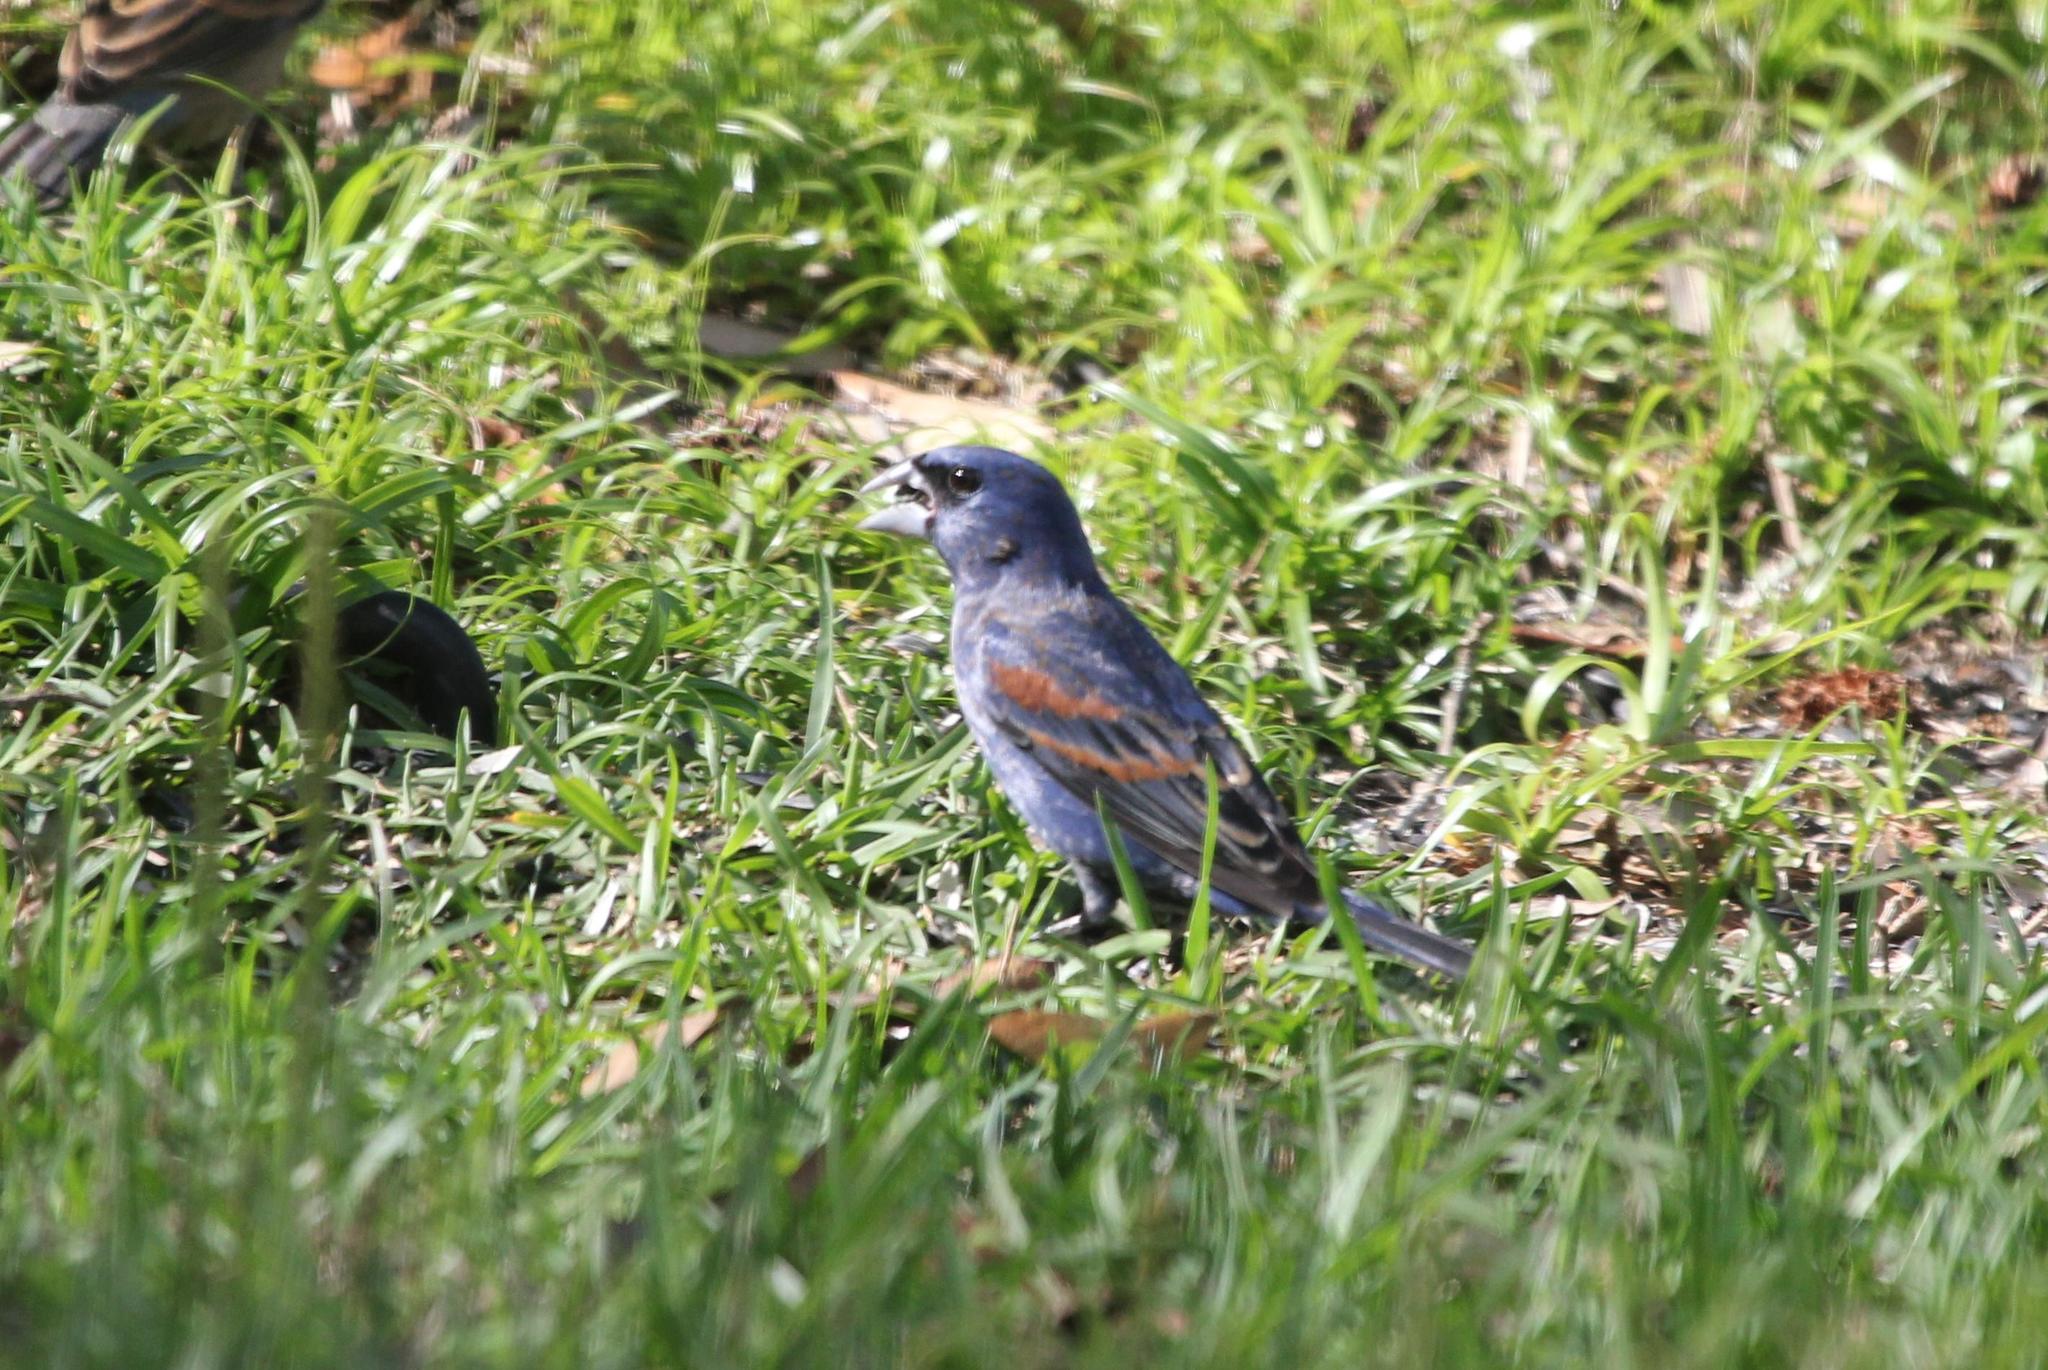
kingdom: Animalia
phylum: Chordata
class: Aves
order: Passeriformes
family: Cardinalidae
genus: Passerina
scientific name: Passerina caerulea
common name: Blue grosbeak
